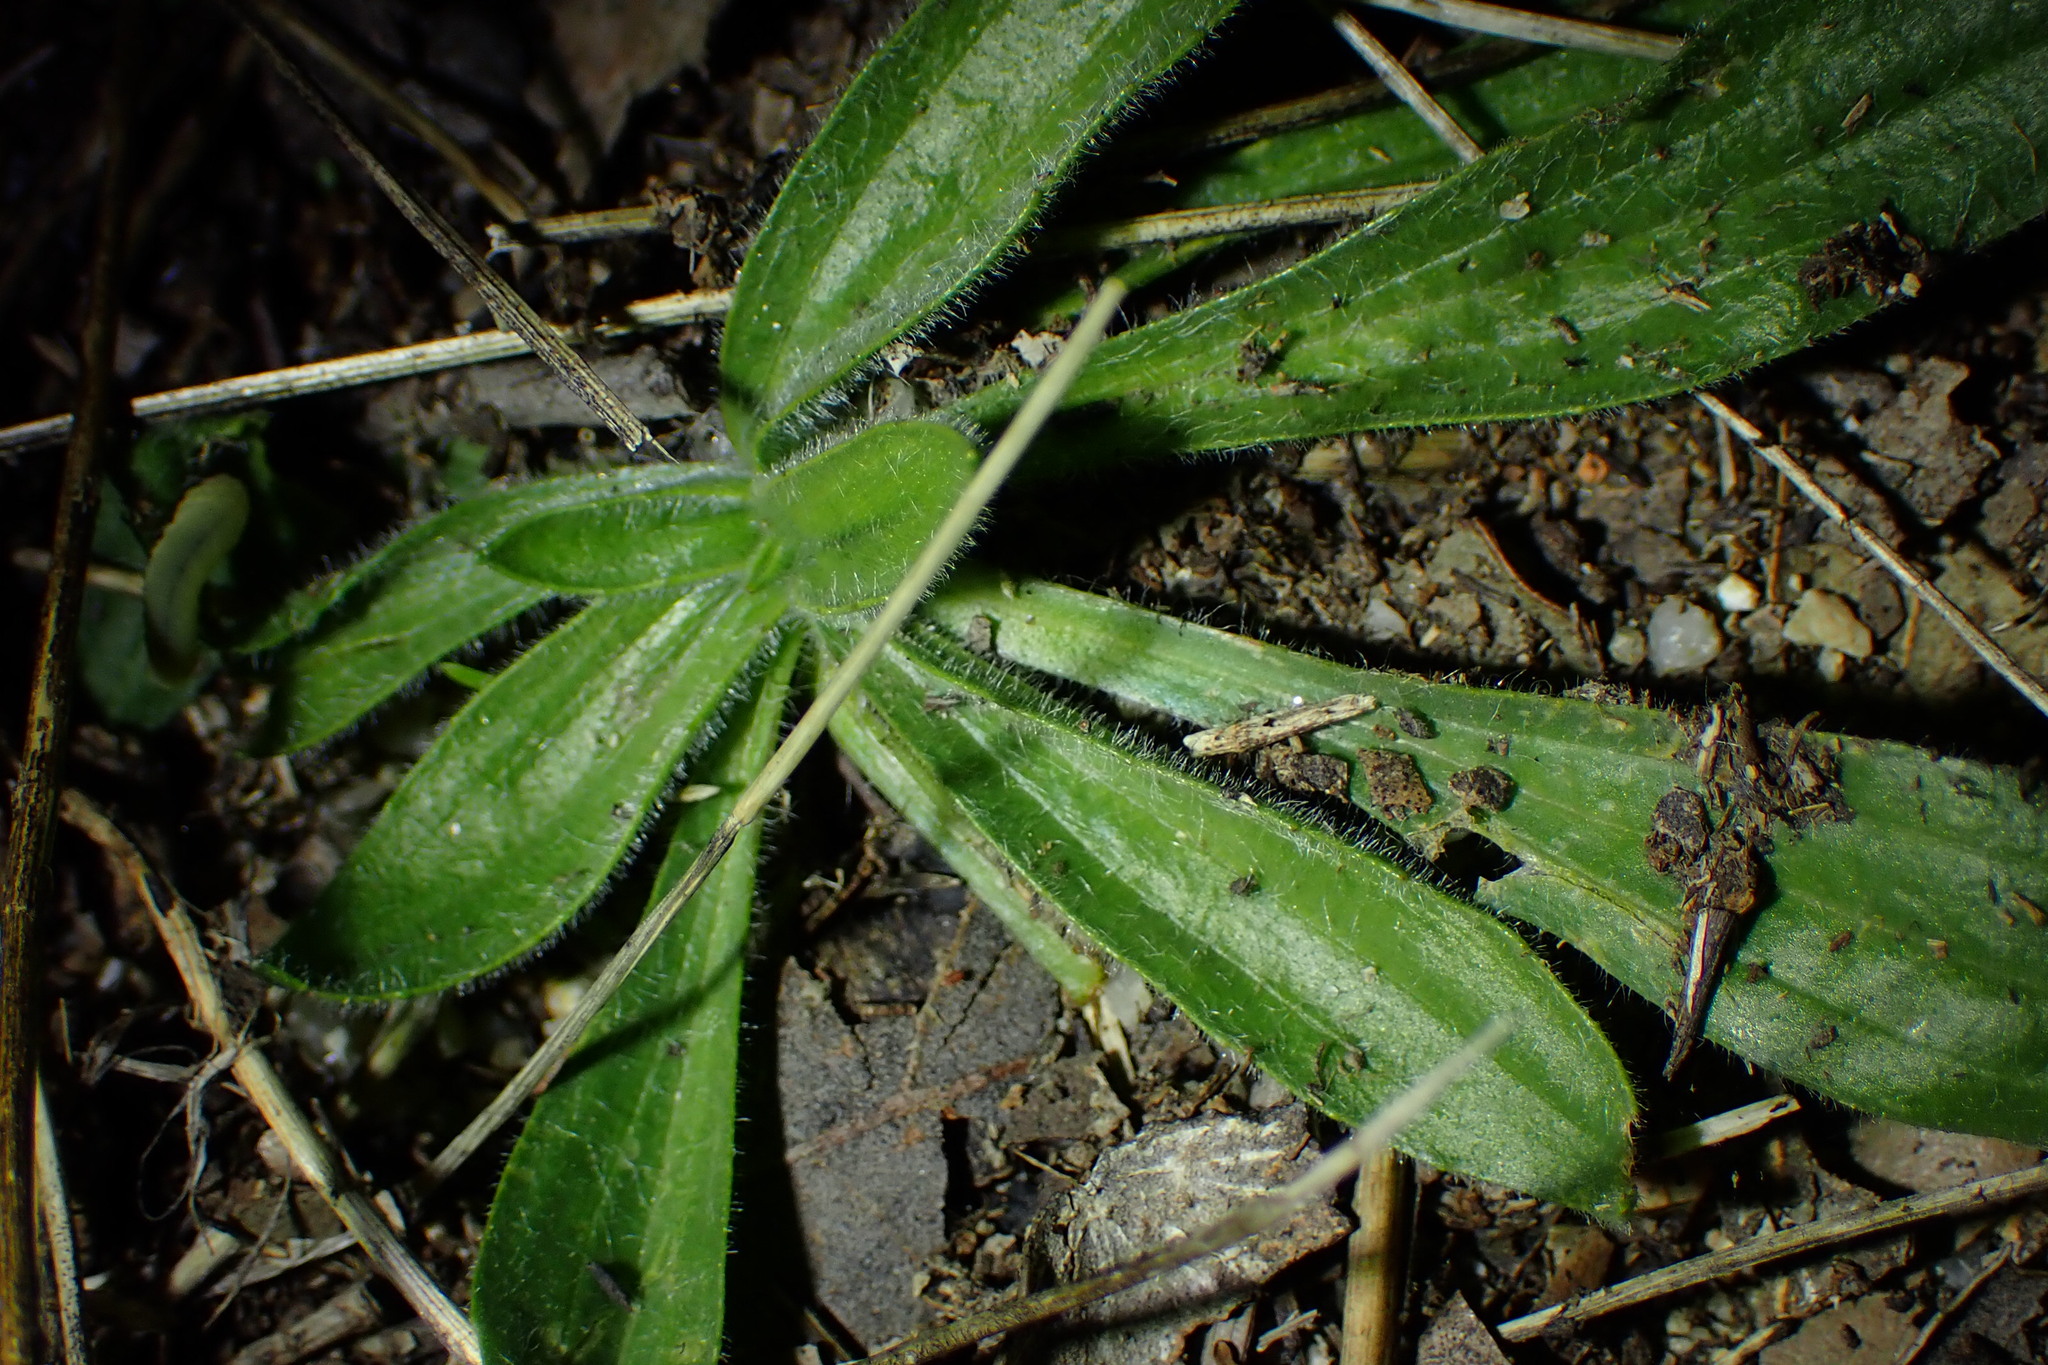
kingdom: Plantae
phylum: Tracheophyta
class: Magnoliopsida
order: Lamiales
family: Plantaginaceae
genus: Plantago
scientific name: Plantago lagopus
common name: Hare-foot plantain
